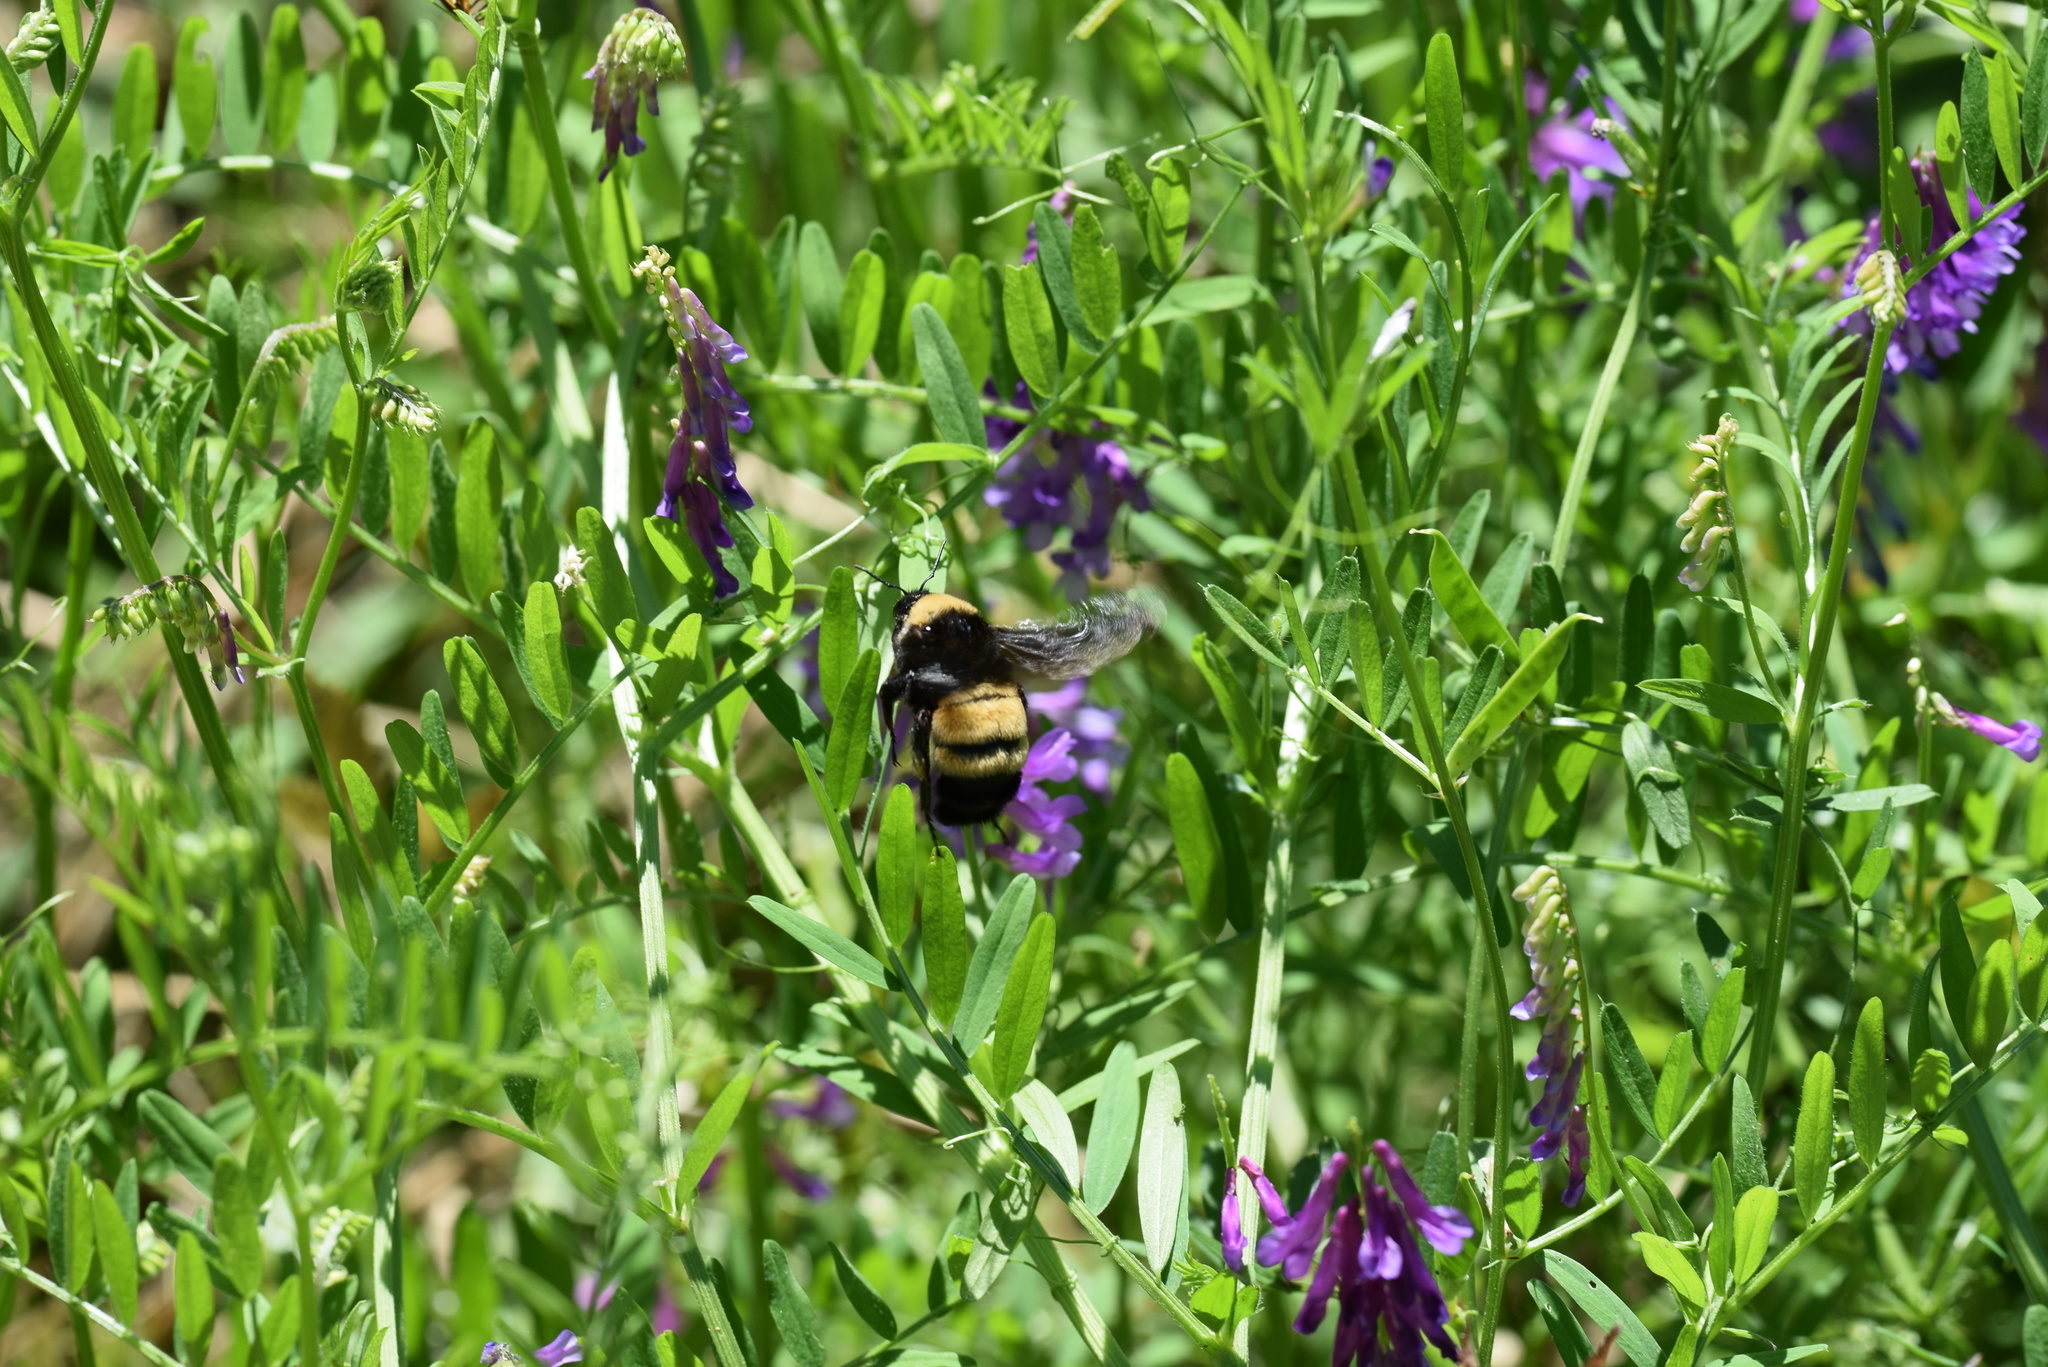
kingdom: Animalia
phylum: Arthropoda
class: Insecta
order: Hymenoptera
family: Apidae
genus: Bombus
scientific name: Bombus pensylvanicus
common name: Bumble bee
